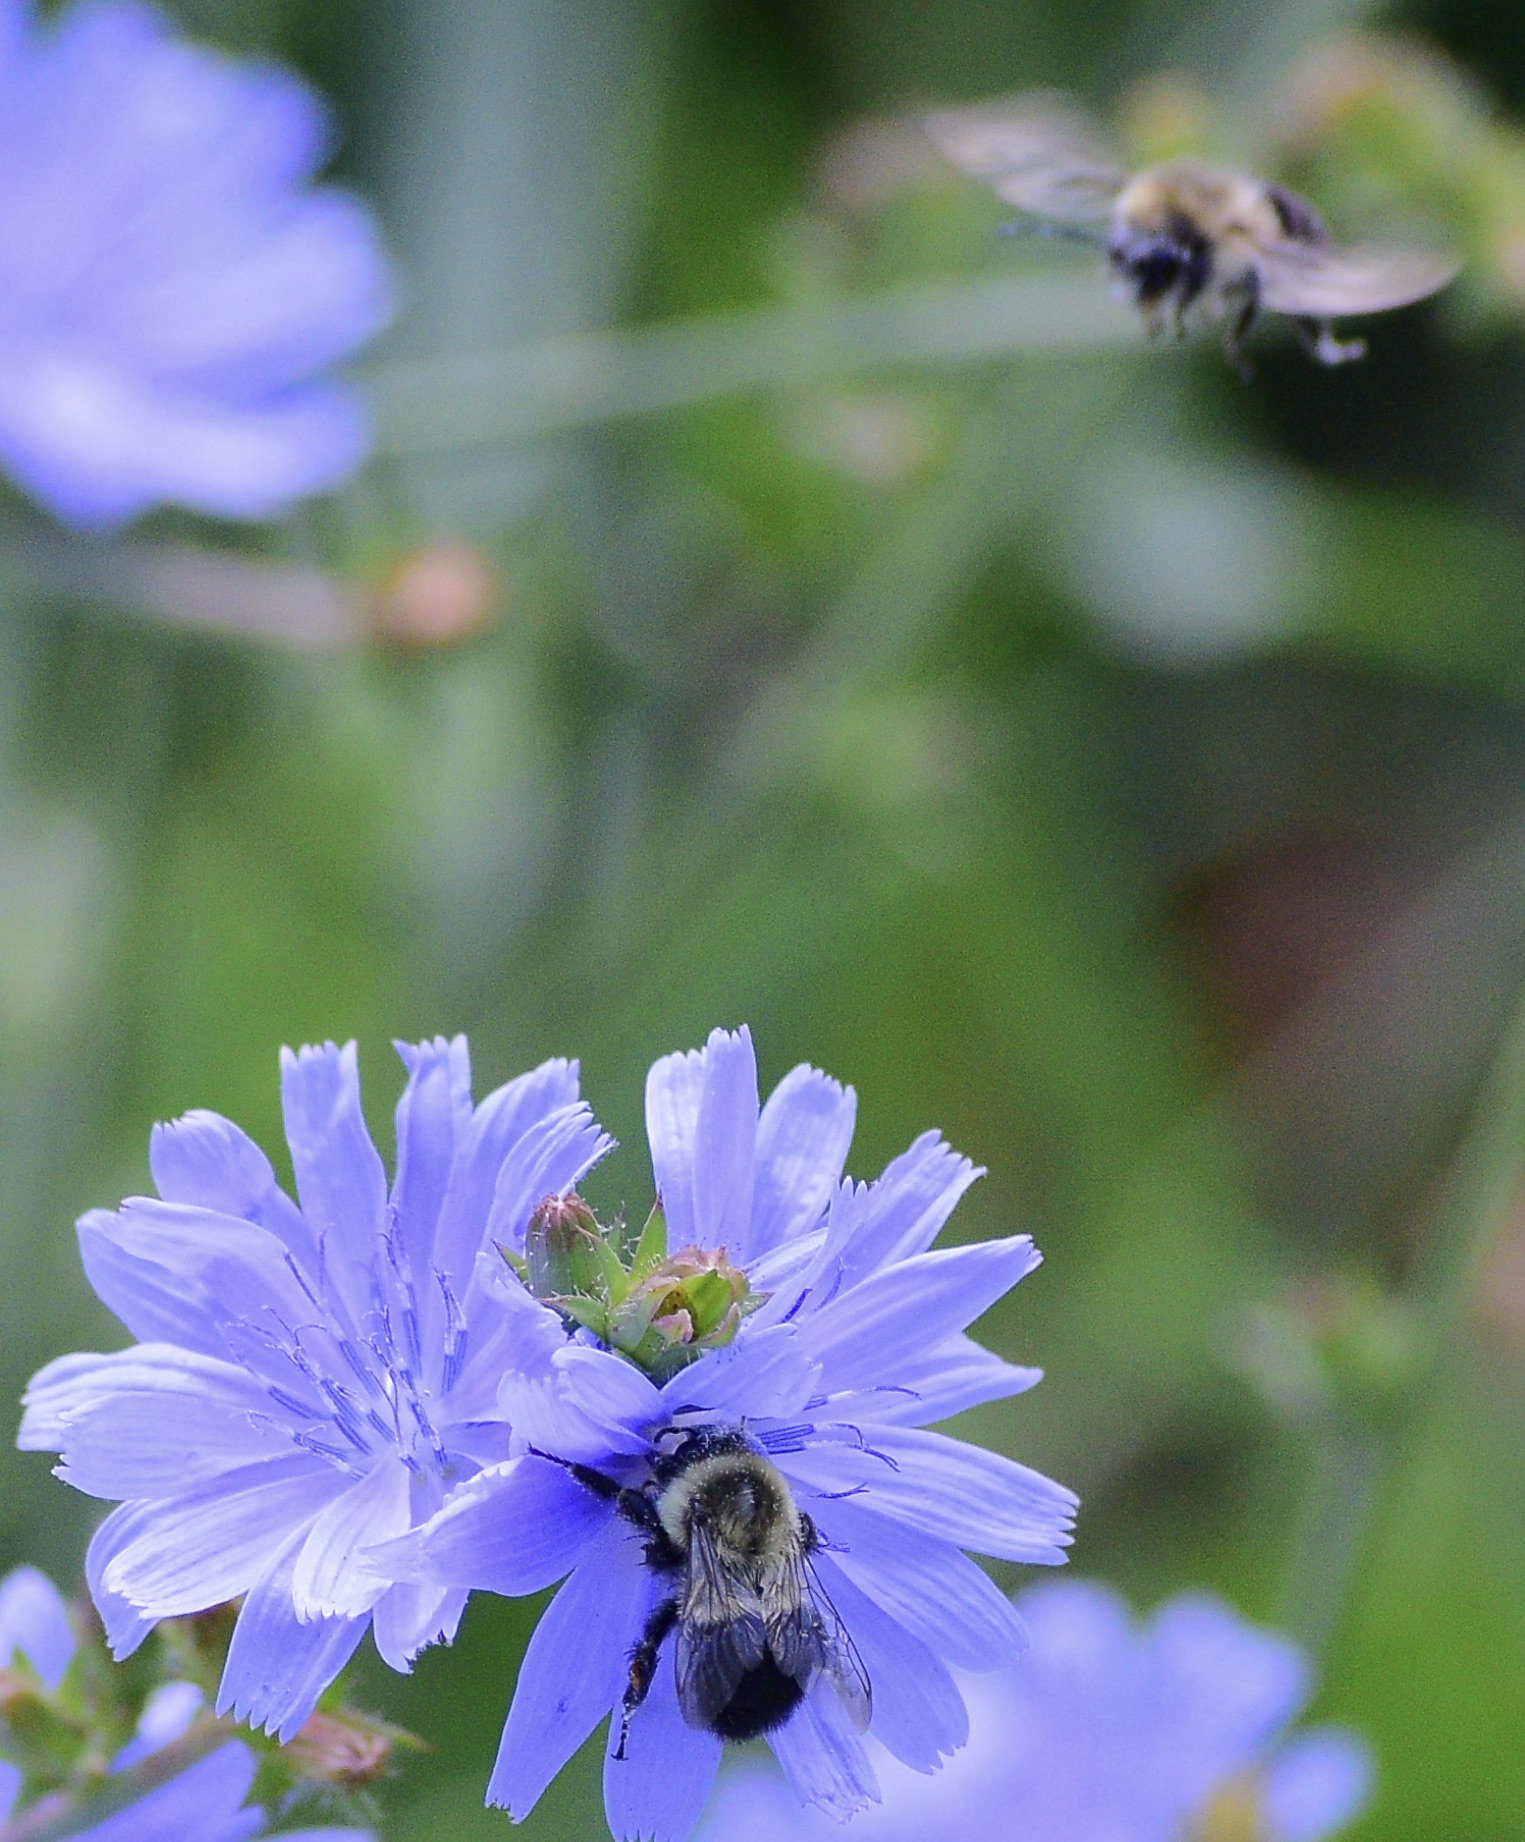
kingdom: Animalia
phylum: Arthropoda
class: Insecta
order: Hymenoptera
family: Apidae
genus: Bombus
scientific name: Bombus impatiens
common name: Common eastern bumble bee
